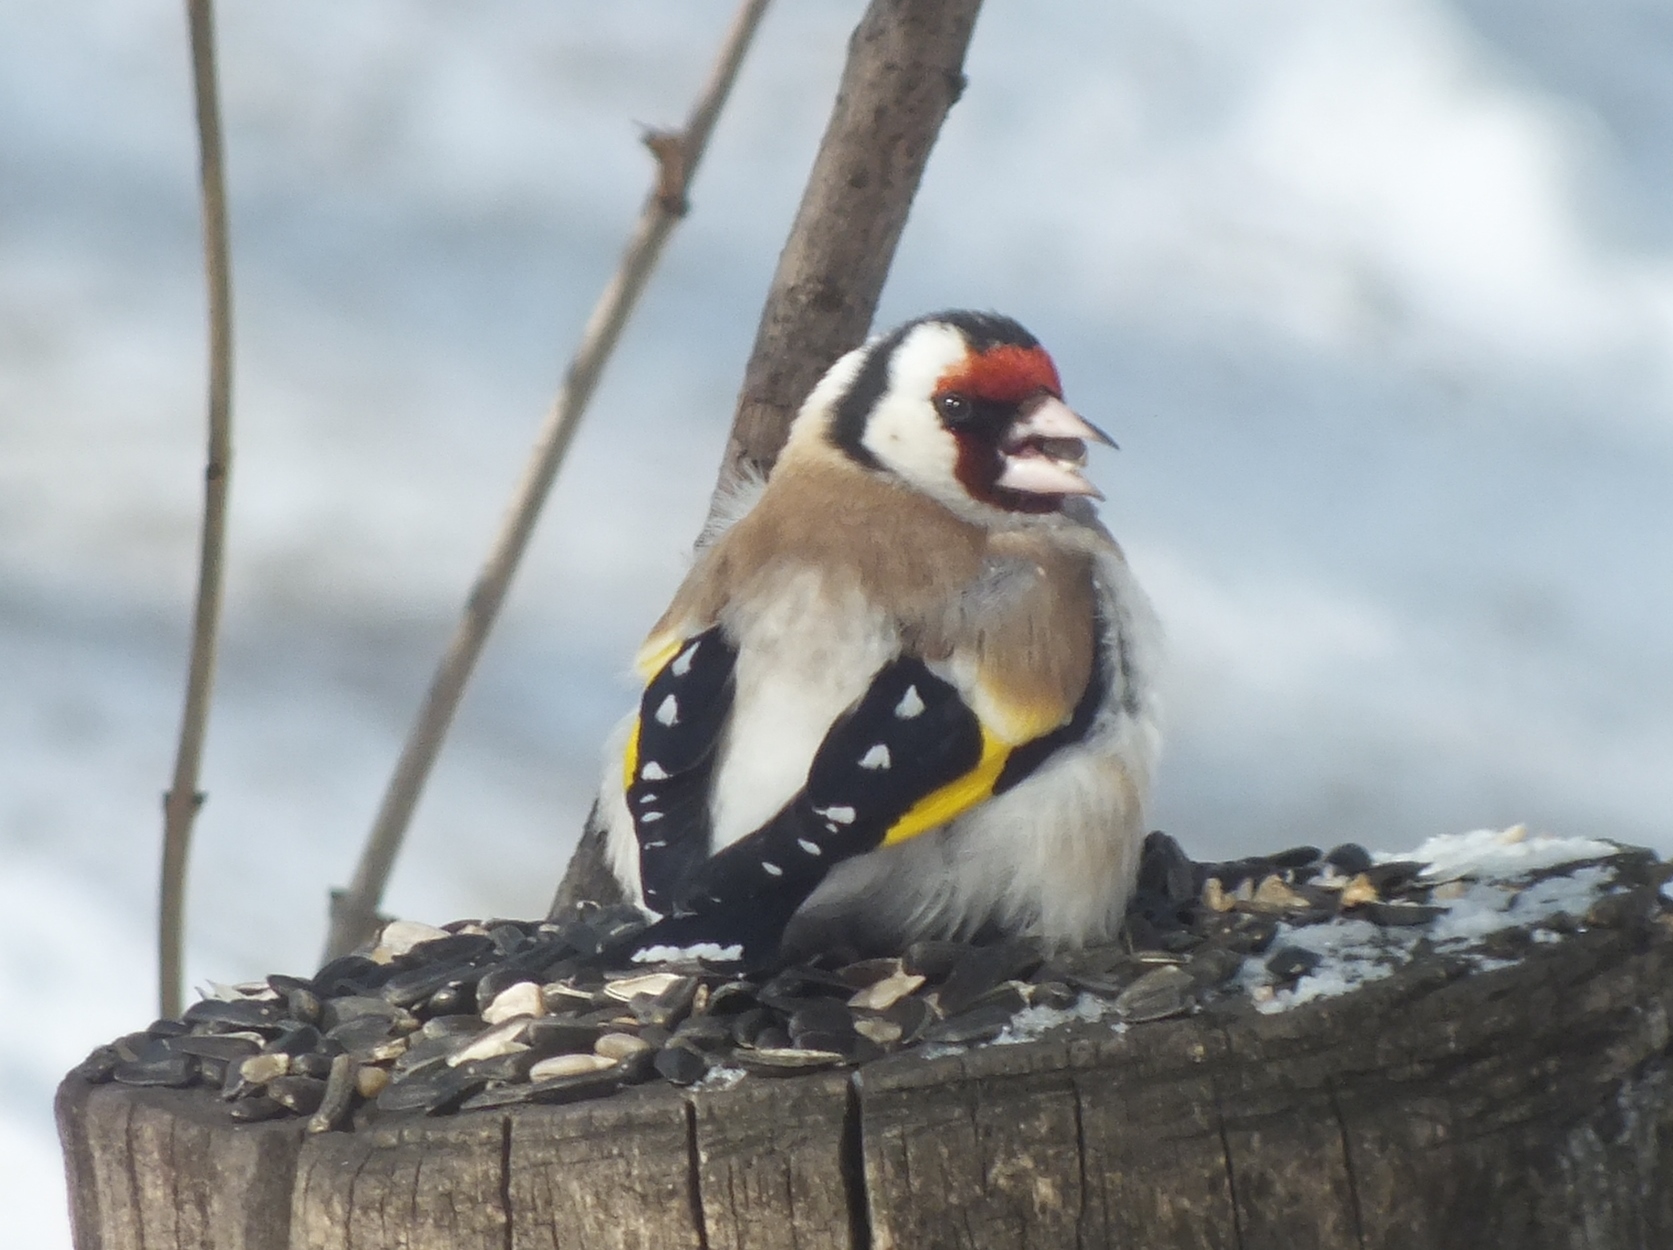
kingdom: Animalia
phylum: Chordata
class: Aves
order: Passeriformes
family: Fringillidae
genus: Carduelis
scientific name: Carduelis carduelis
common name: European goldfinch
